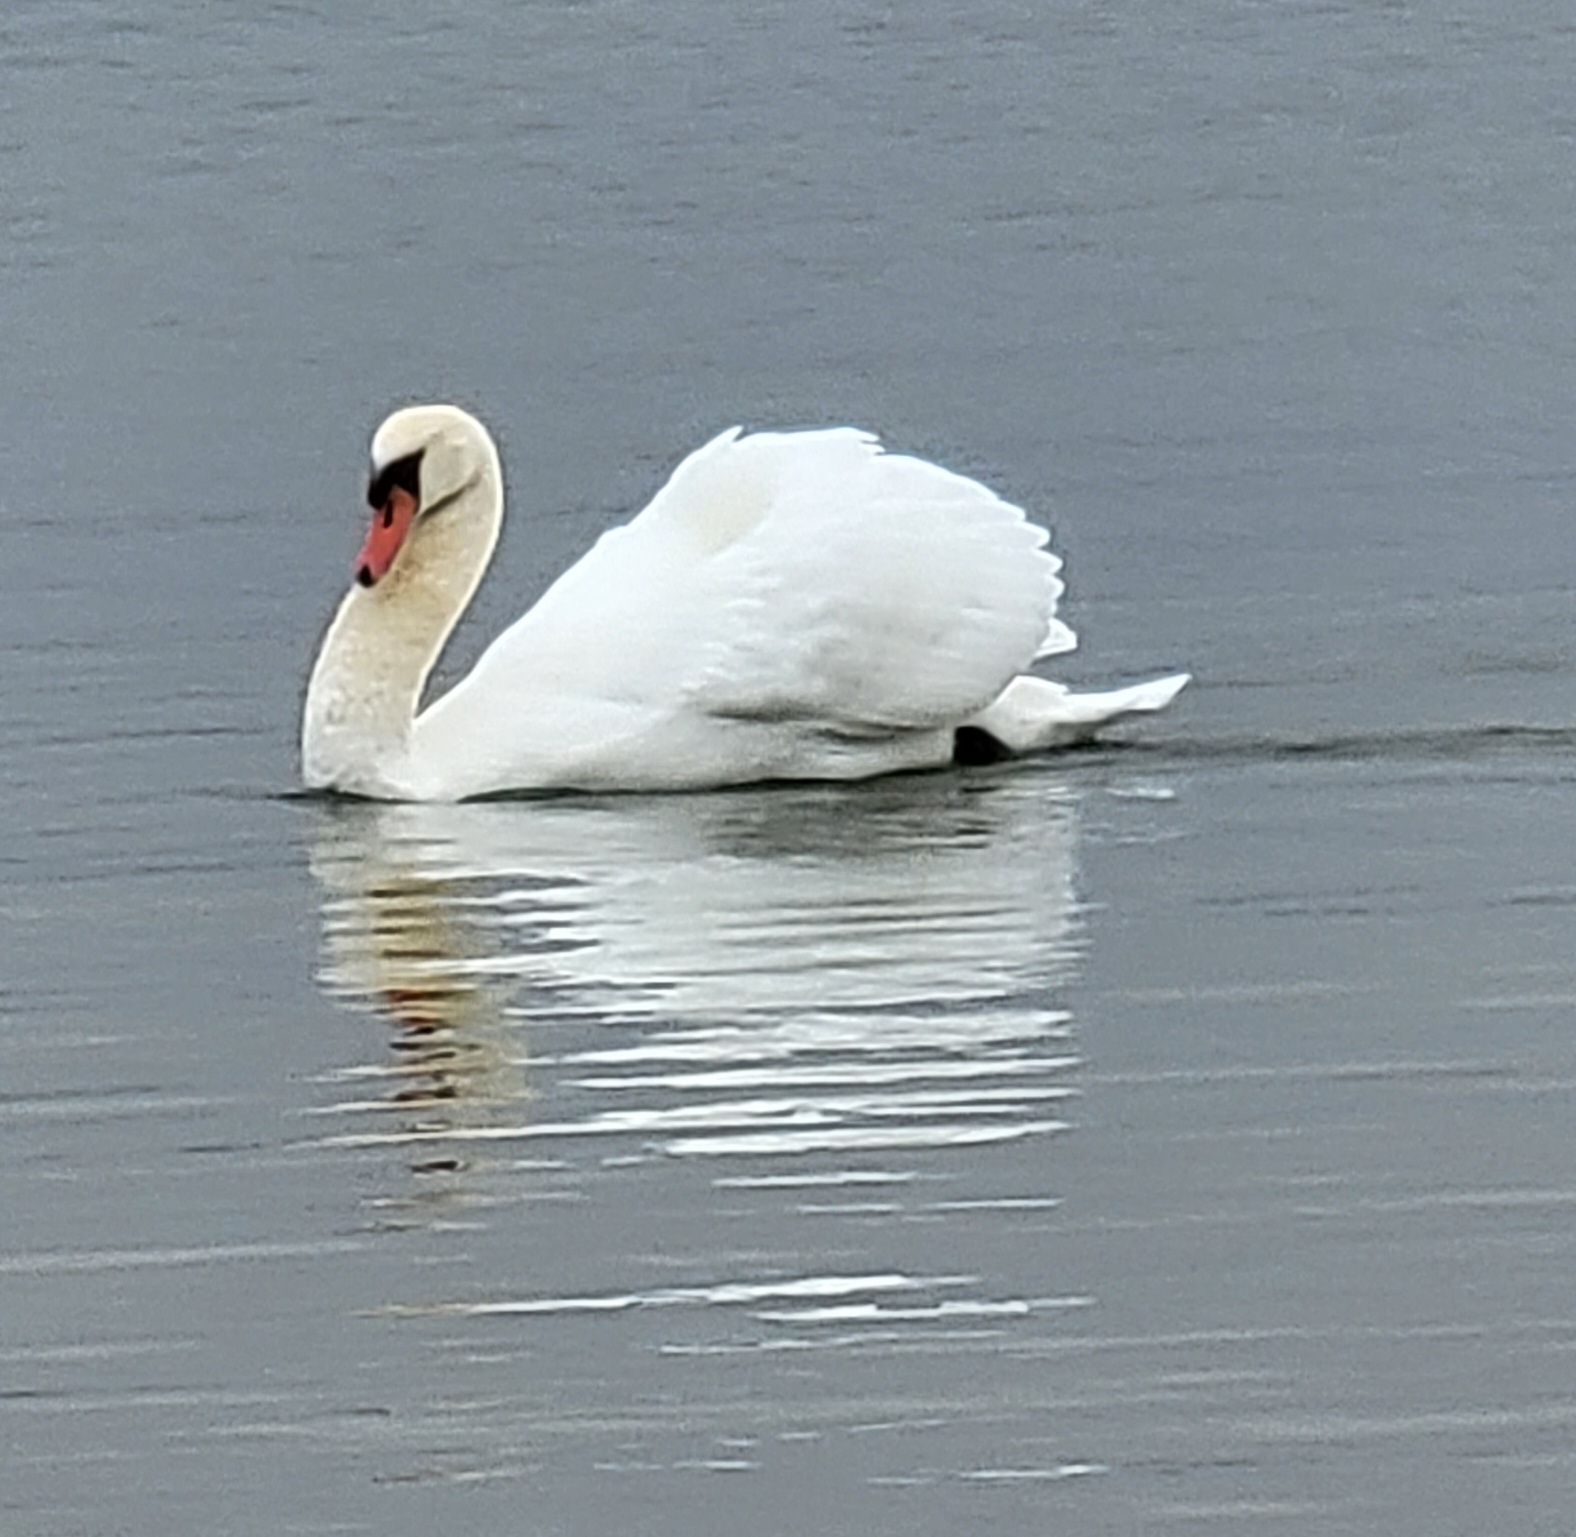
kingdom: Animalia
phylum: Chordata
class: Aves
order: Anseriformes
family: Anatidae
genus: Cygnus
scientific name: Cygnus olor
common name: Mute swan
